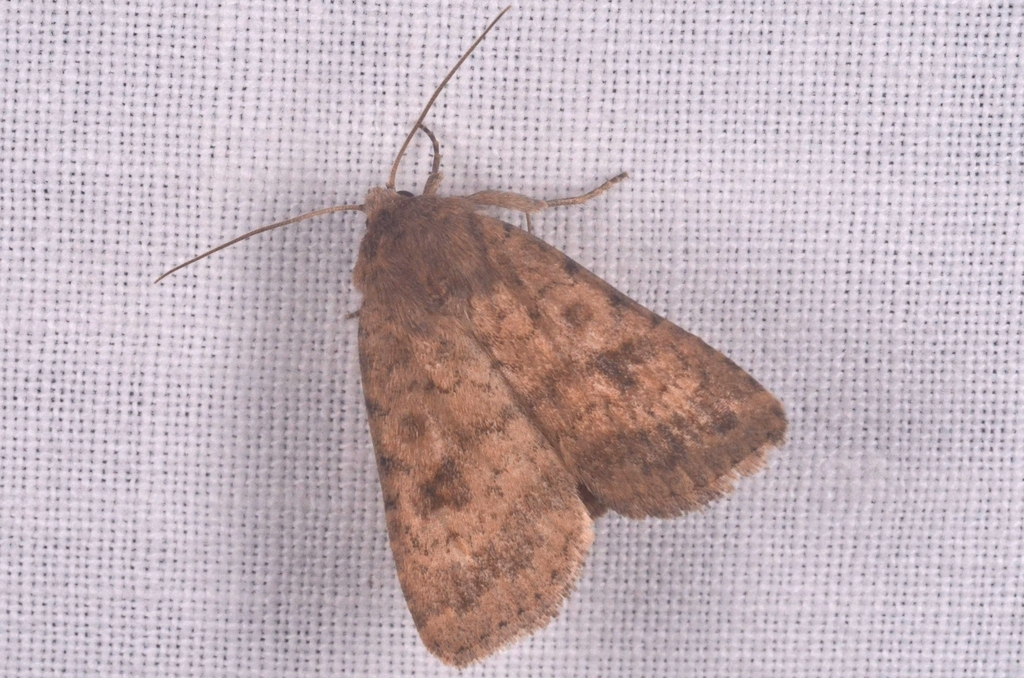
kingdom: Animalia
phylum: Arthropoda
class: Insecta
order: Lepidoptera
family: Noctuidae
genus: Caradrina
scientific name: Caradrina morpheus
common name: Mottled rustic
